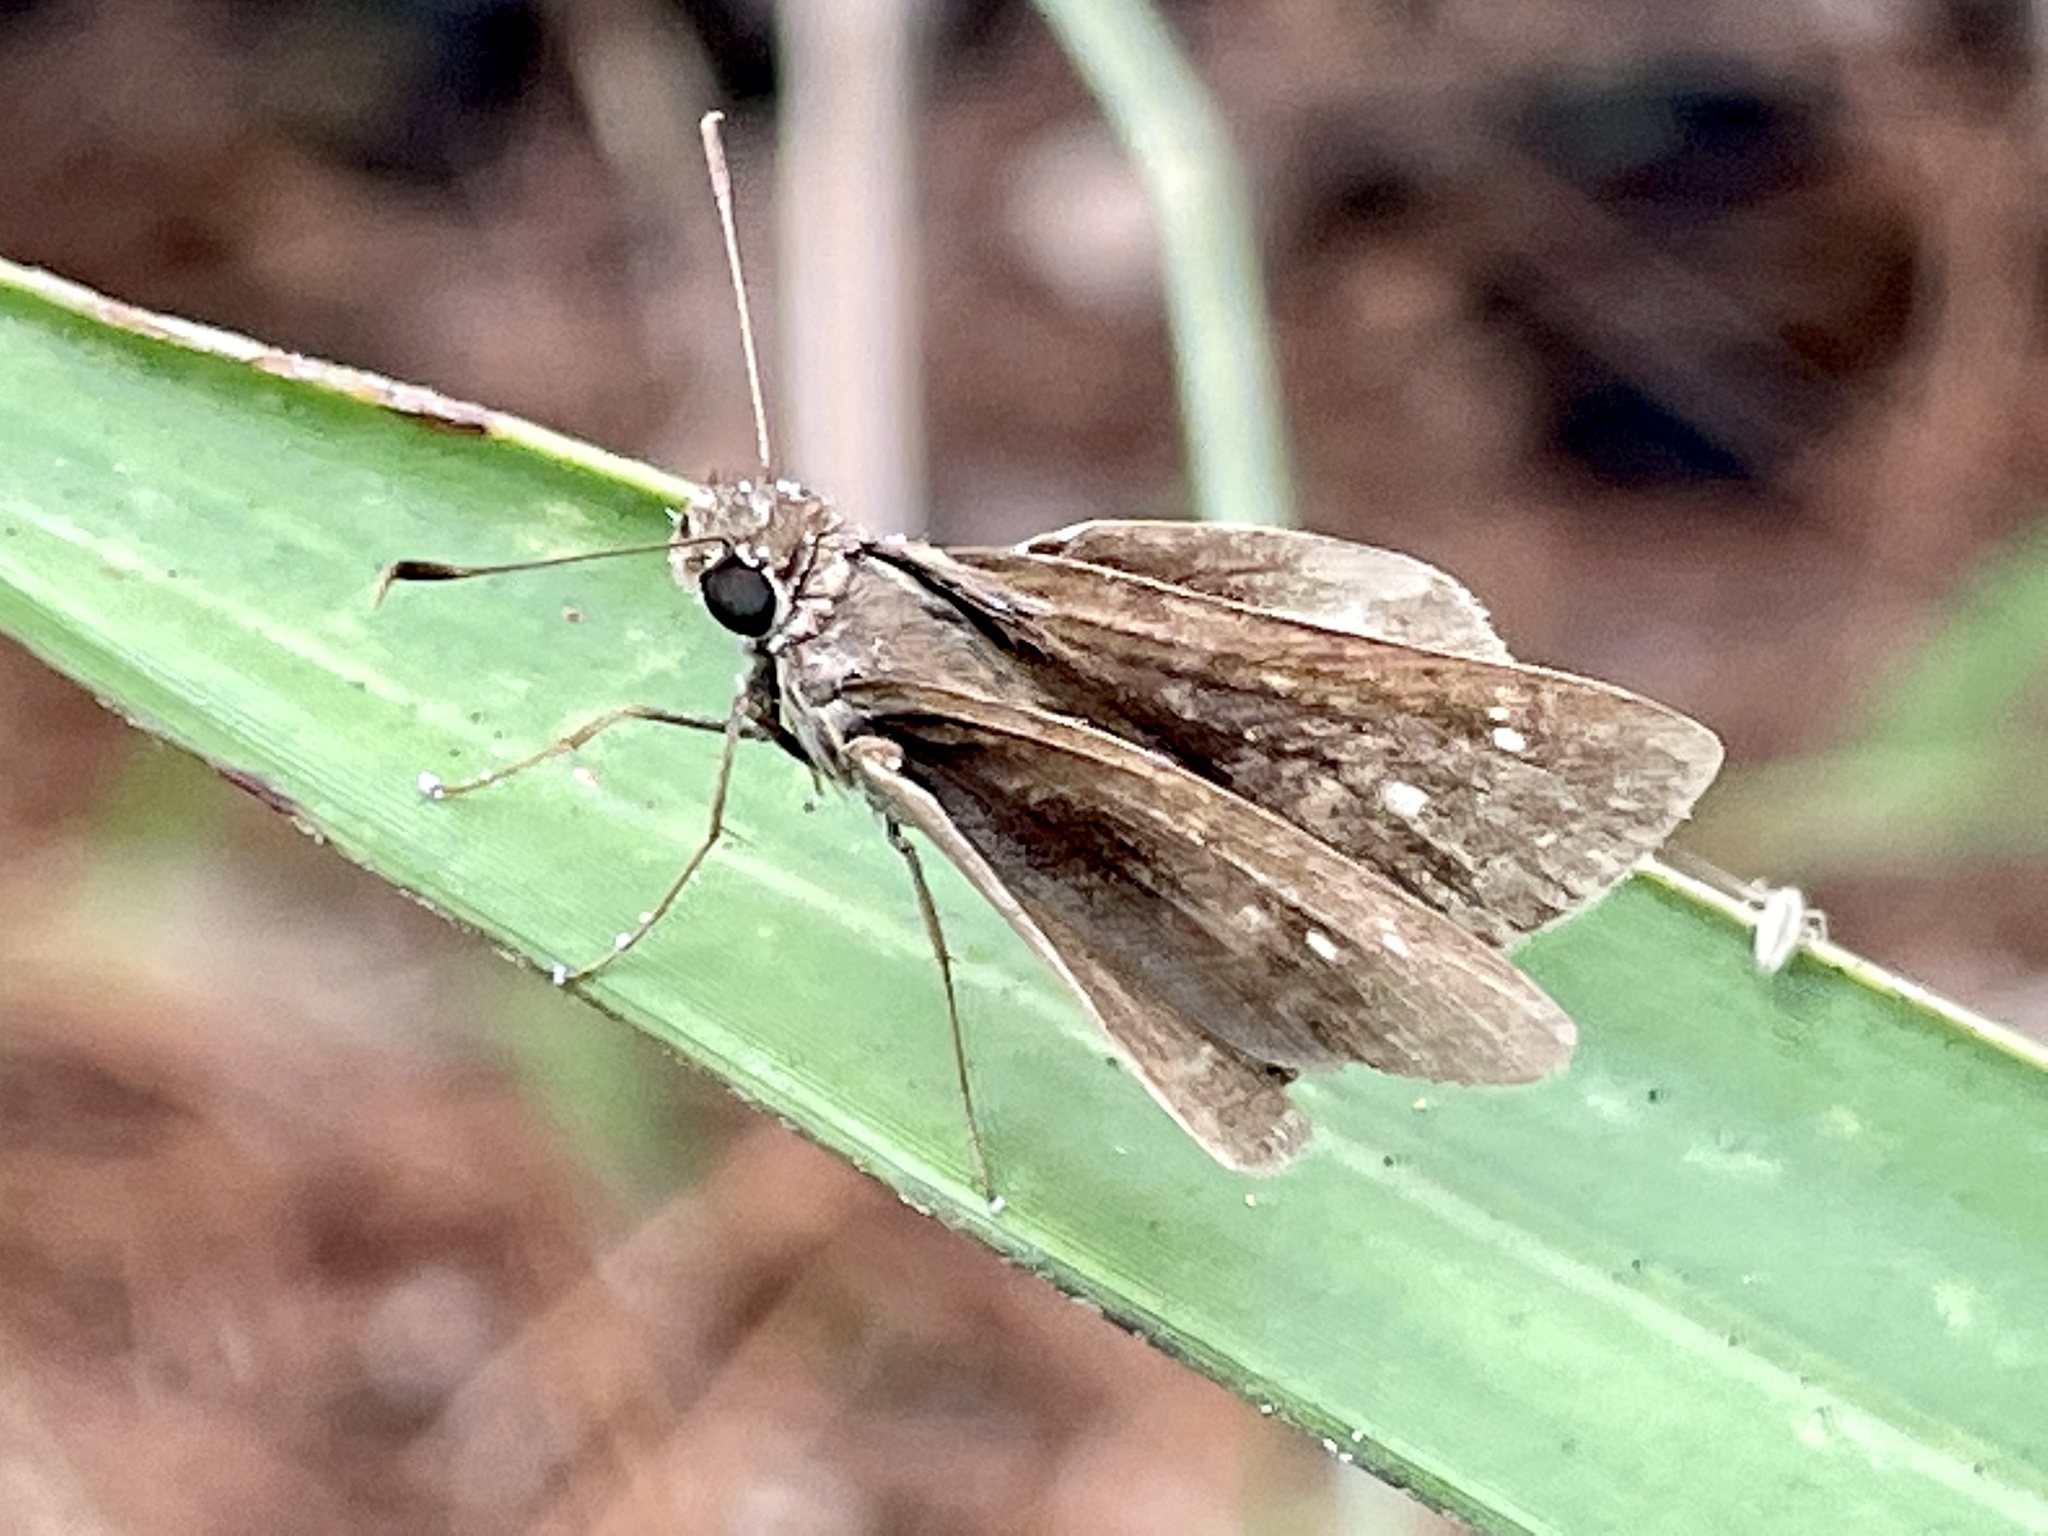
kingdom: Animalia
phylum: Arthropoda
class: Insecta
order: Lepidoptera
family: Hesperiidae
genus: Cymaenes
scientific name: Cymaenes tripunctus
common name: Dingy dotted skipper
